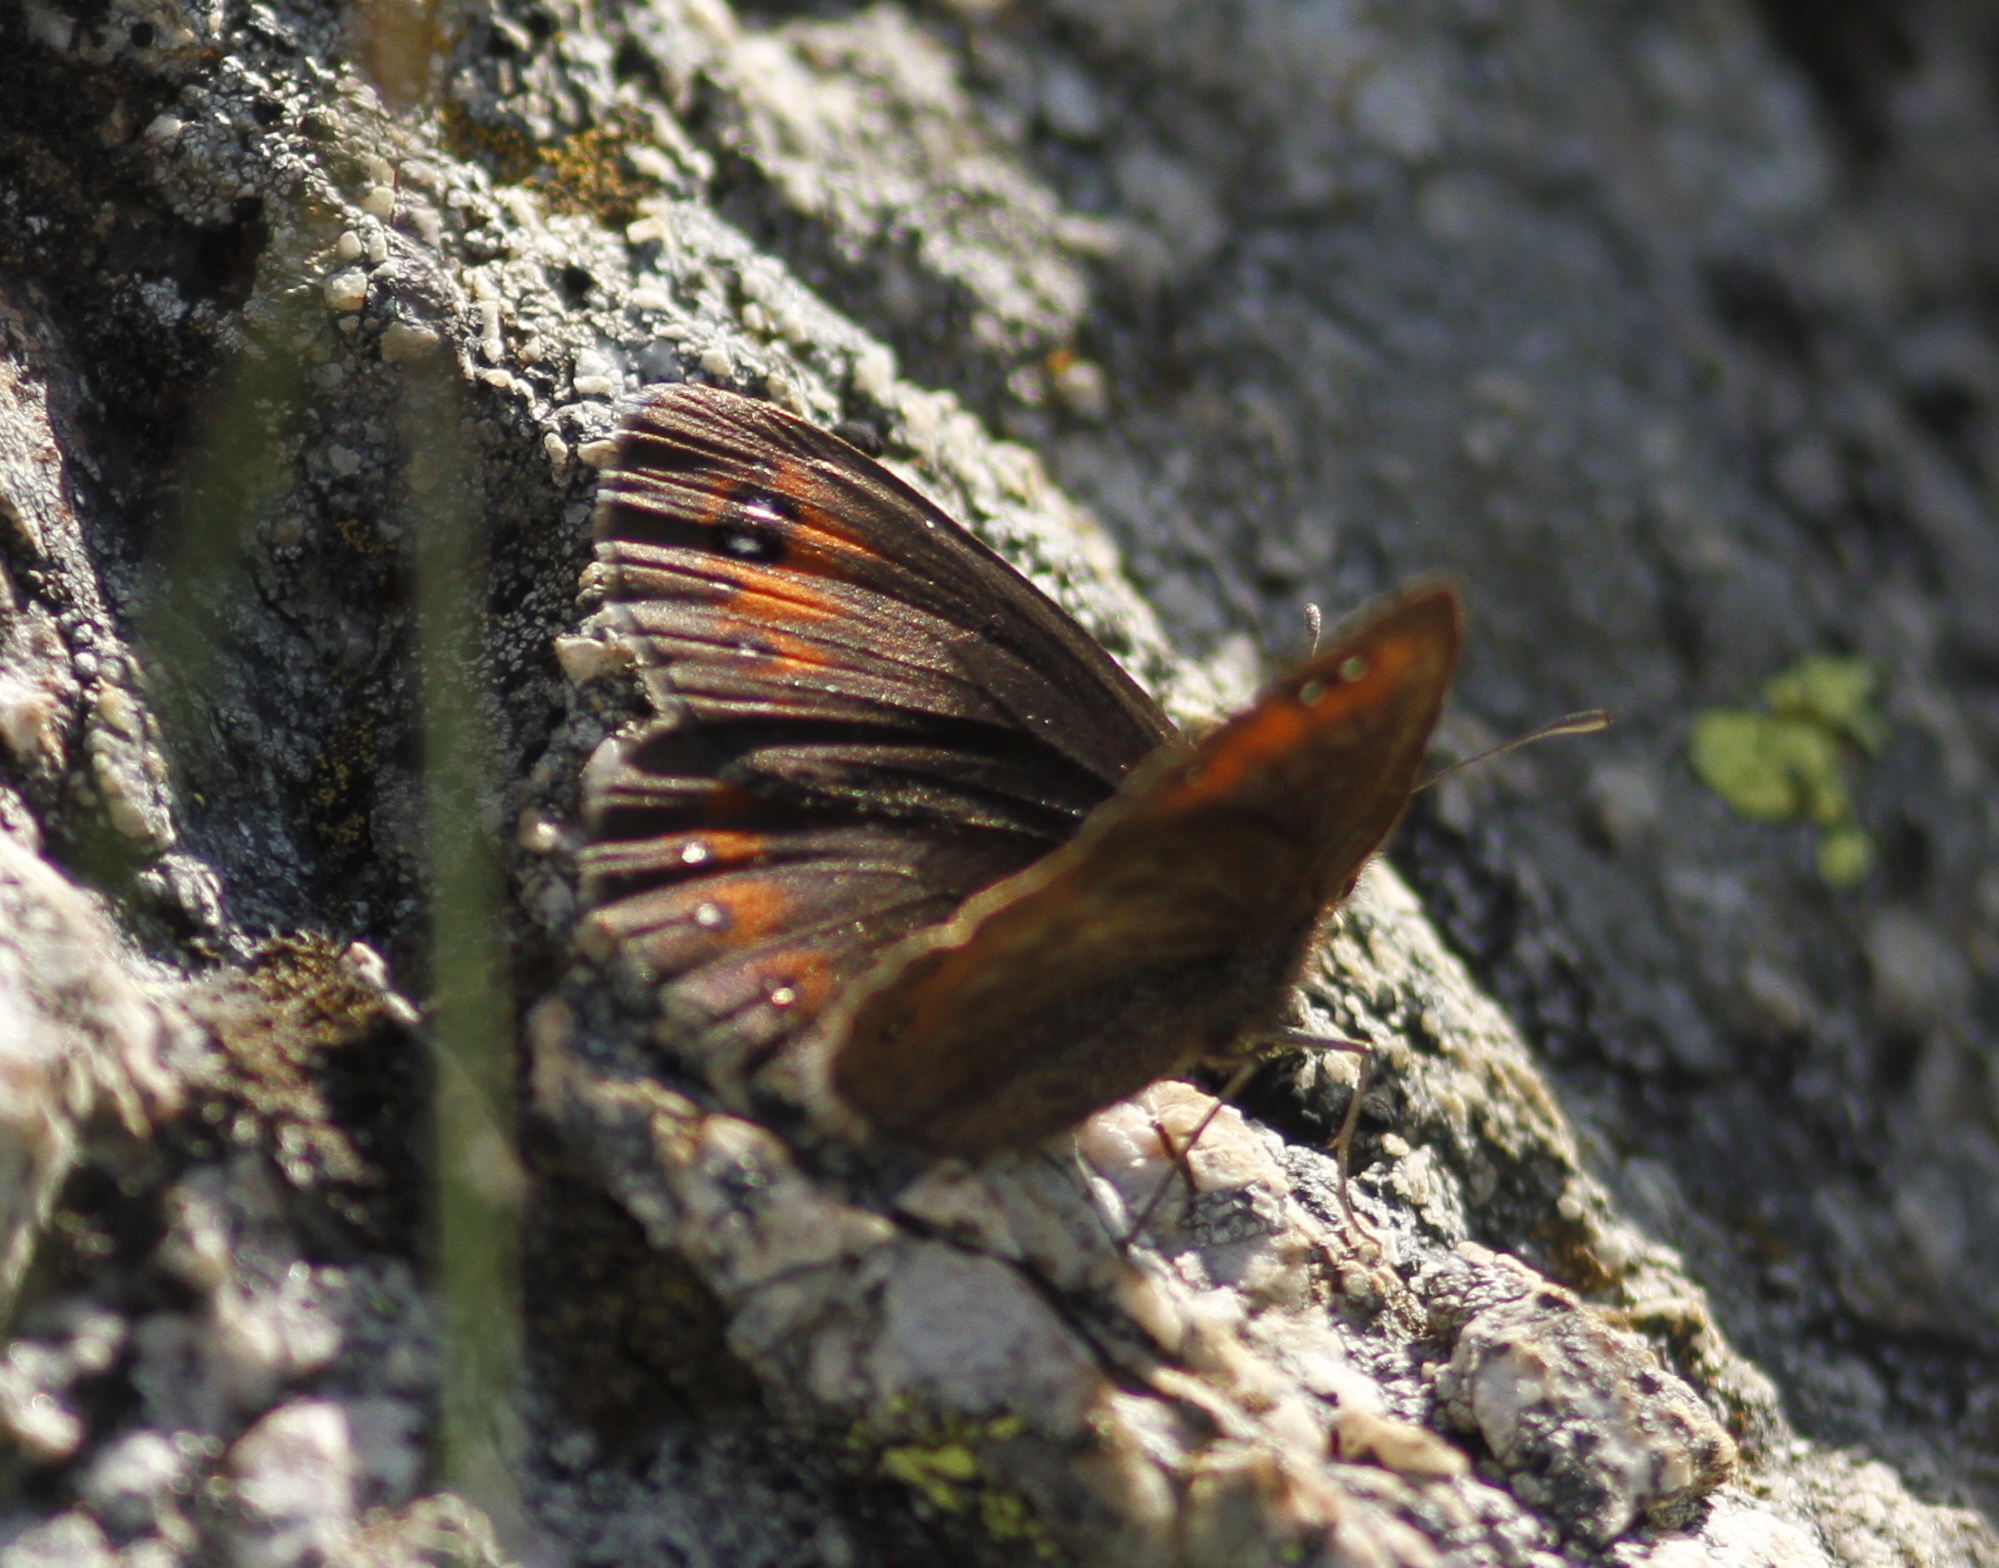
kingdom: Animalia
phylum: Arthropoda
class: Insecta
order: Lepidoptera
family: Nymphalidae
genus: Erebia
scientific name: Erebia meolans
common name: Piedmont ringlet
